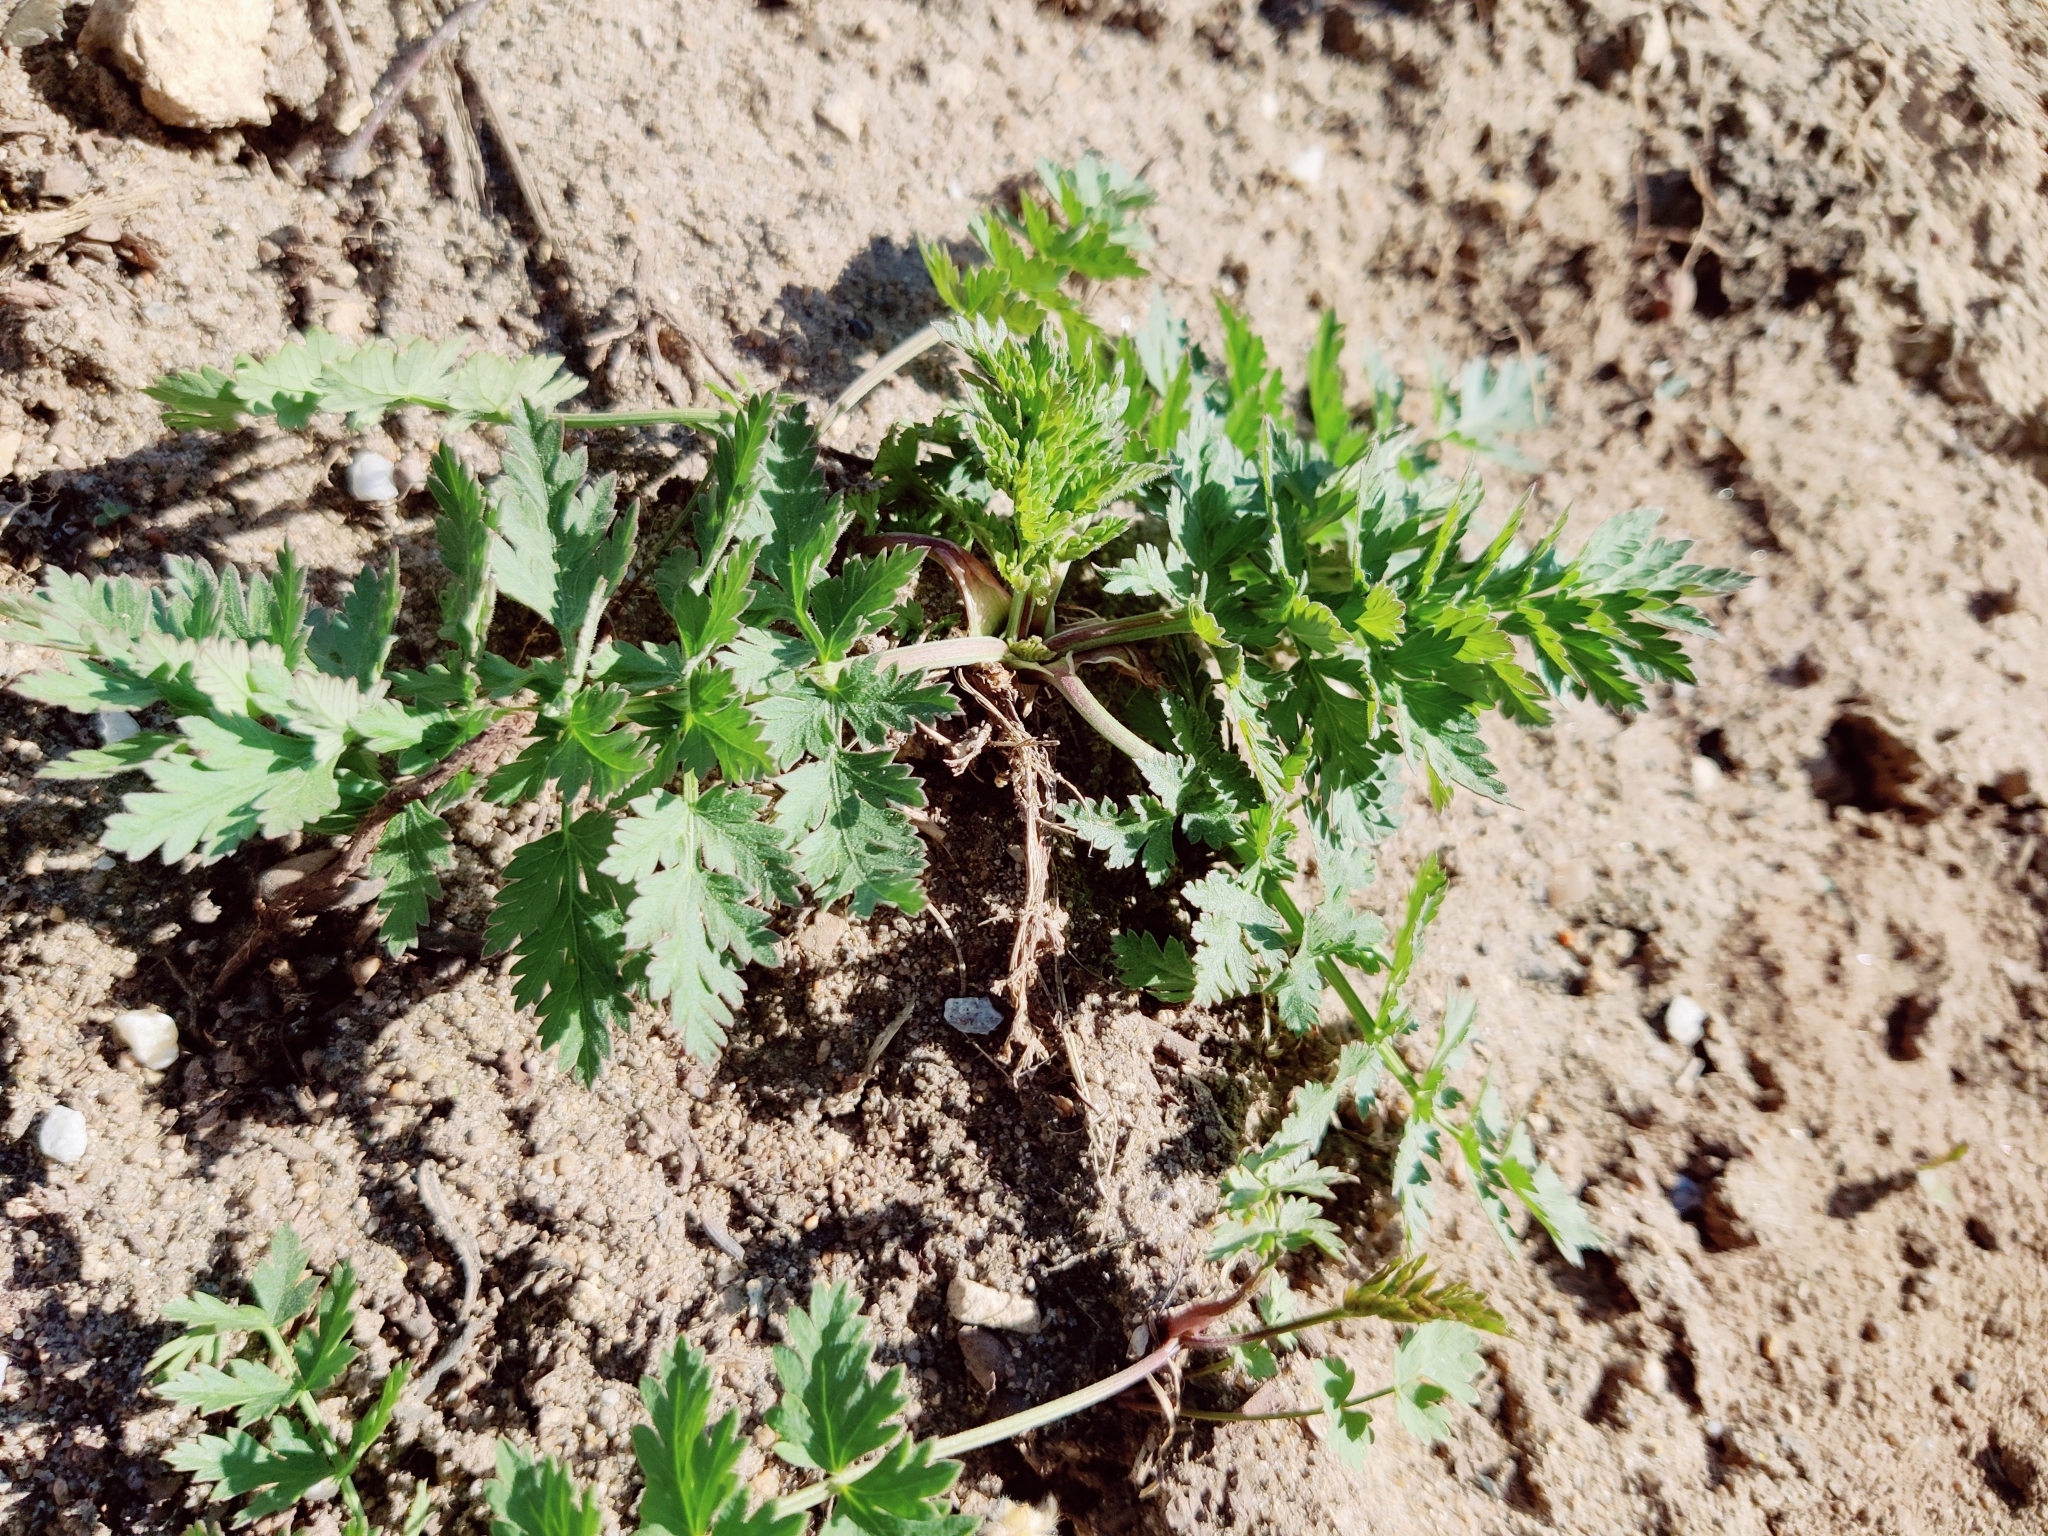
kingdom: Plantae
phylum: Tracheophyta
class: Magnoliopsida
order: Apiales
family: Apiaceae
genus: Seseli
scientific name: Seseli libanotis
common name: Mooncarrot
